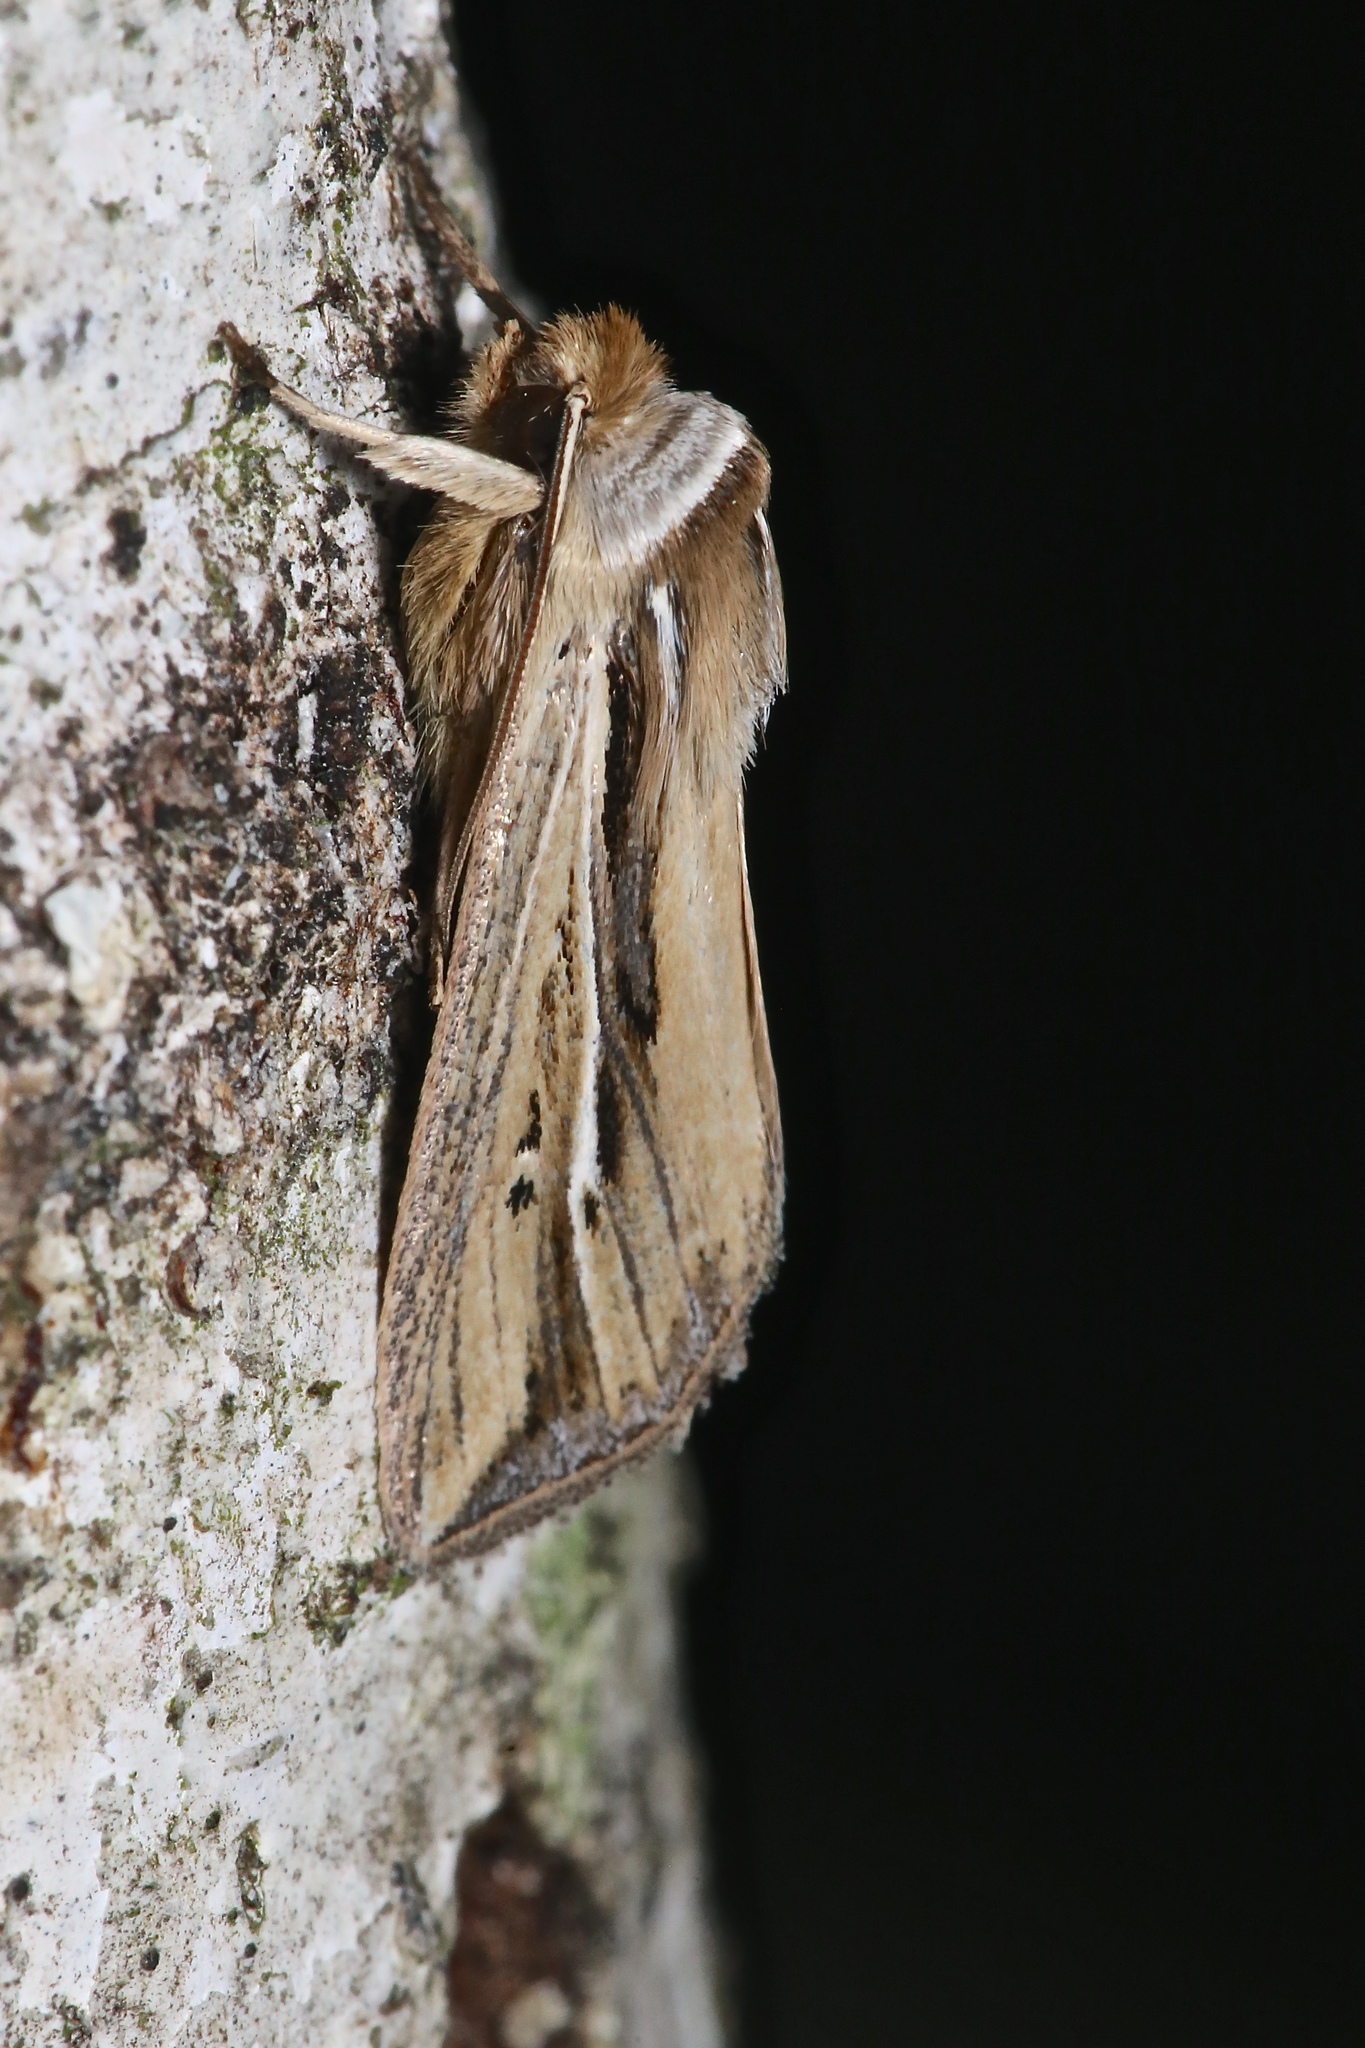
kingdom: Animalia
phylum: Arthropoda
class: Insecta
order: Lepidoptera
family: Noctuidae
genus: Dargida
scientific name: Dargida diffusa
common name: Wheat head armyworm
